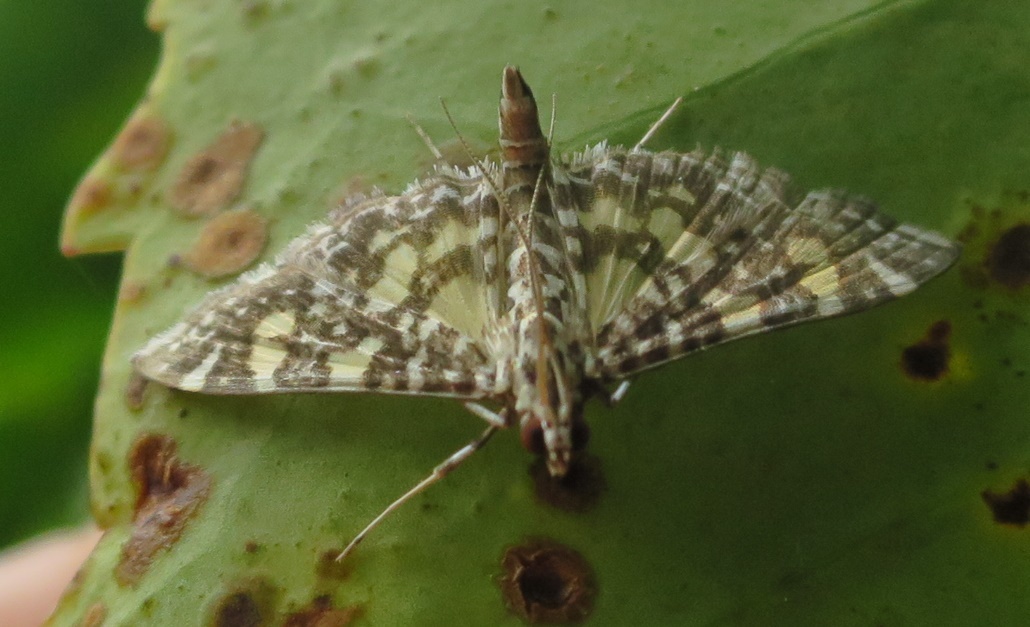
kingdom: Animalia
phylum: Arthropoda
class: Insecta
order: Lepidoptera
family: Crambidae
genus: Glyphodes
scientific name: Glyphodes onychinalis
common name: Swan plant moth
